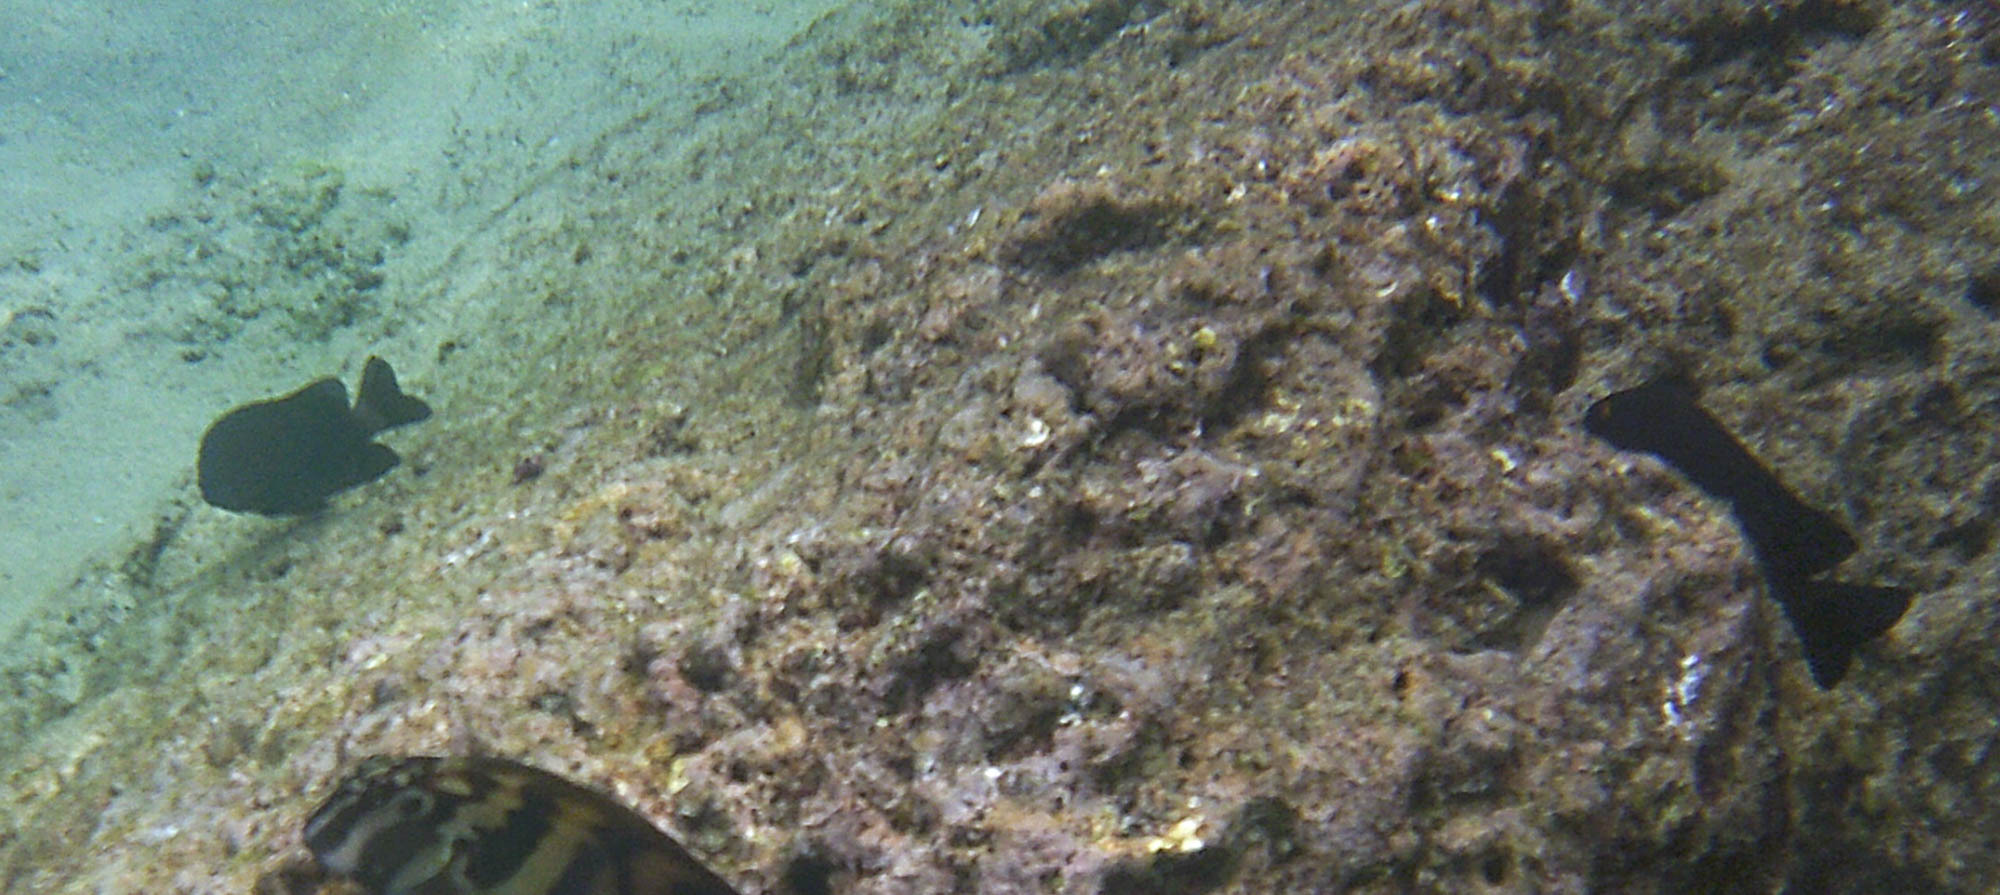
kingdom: Animalia
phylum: Chordata
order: Perciformes
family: Pomacentridae
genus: Stegastes
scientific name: Stegastes beebei
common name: Galapagos ringtail damselfish
